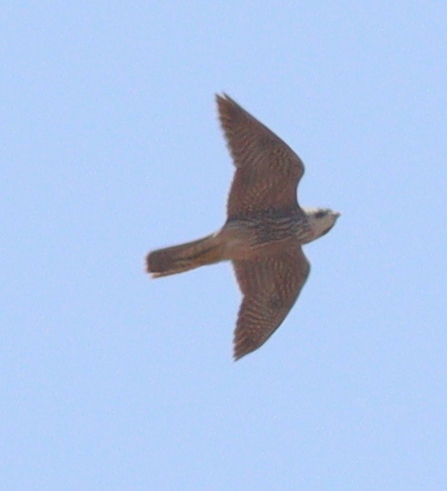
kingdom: Animalia
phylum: Chordata
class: Aves
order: Falconiformes
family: Falconidae
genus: Falco
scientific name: Falco peregrinus
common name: Peregrine falcon
